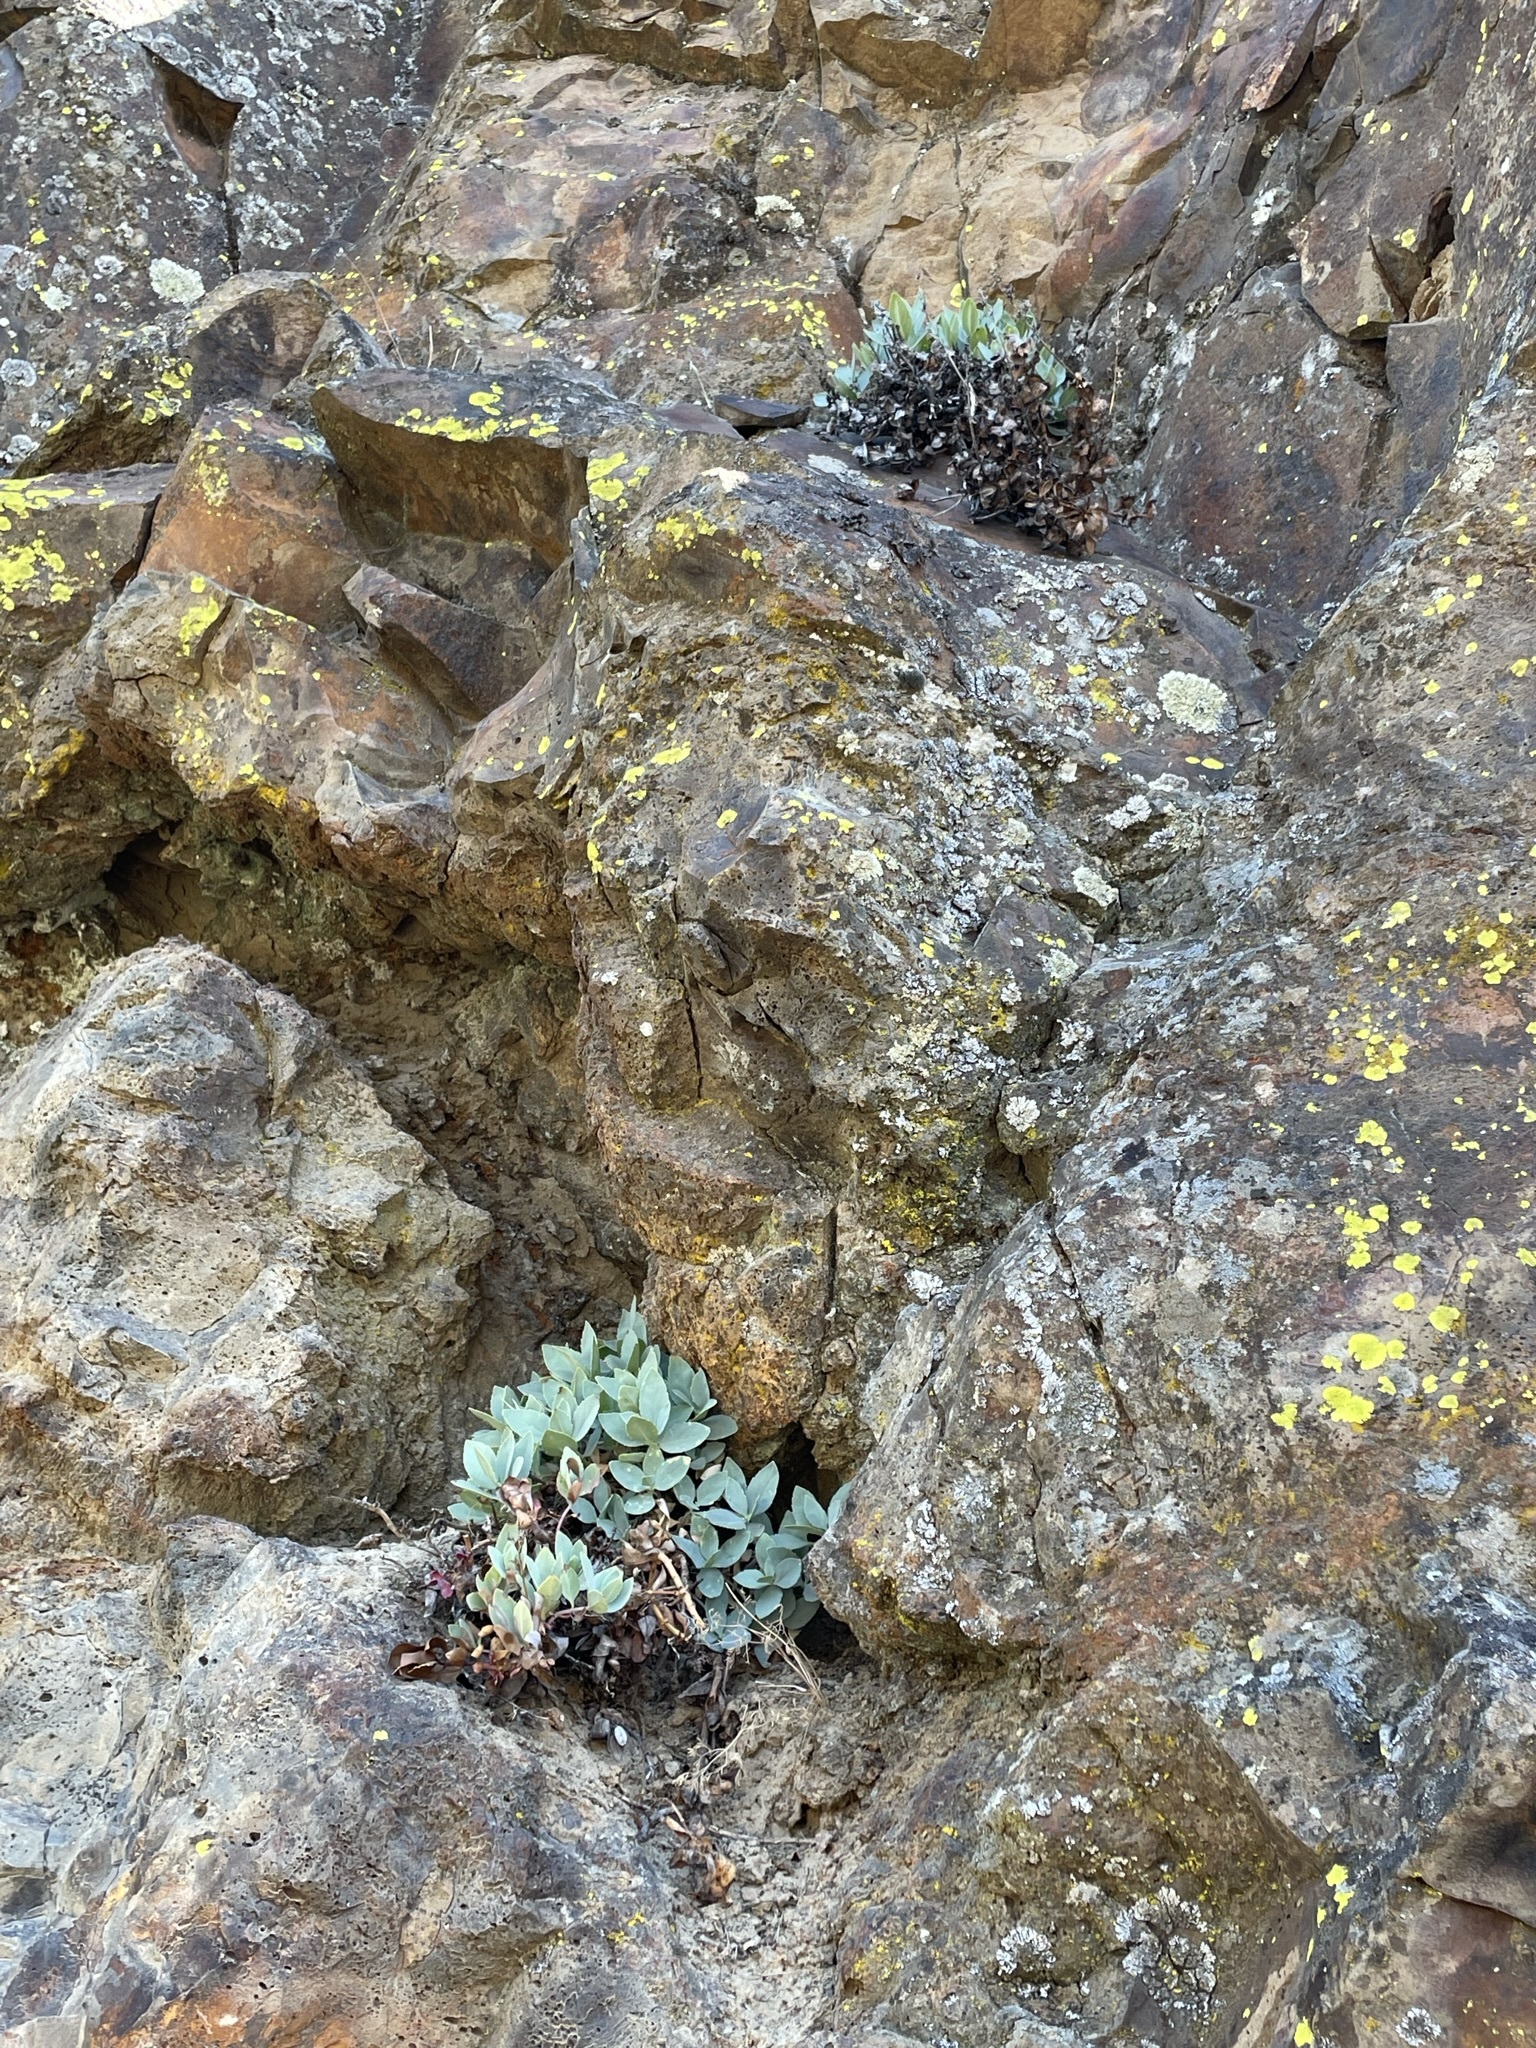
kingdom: Plantae
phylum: Tracheophyta
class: Magnoliopsida
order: Lamiales
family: Plantaginaceae
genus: Penstemon
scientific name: Penstemon barrettiae
